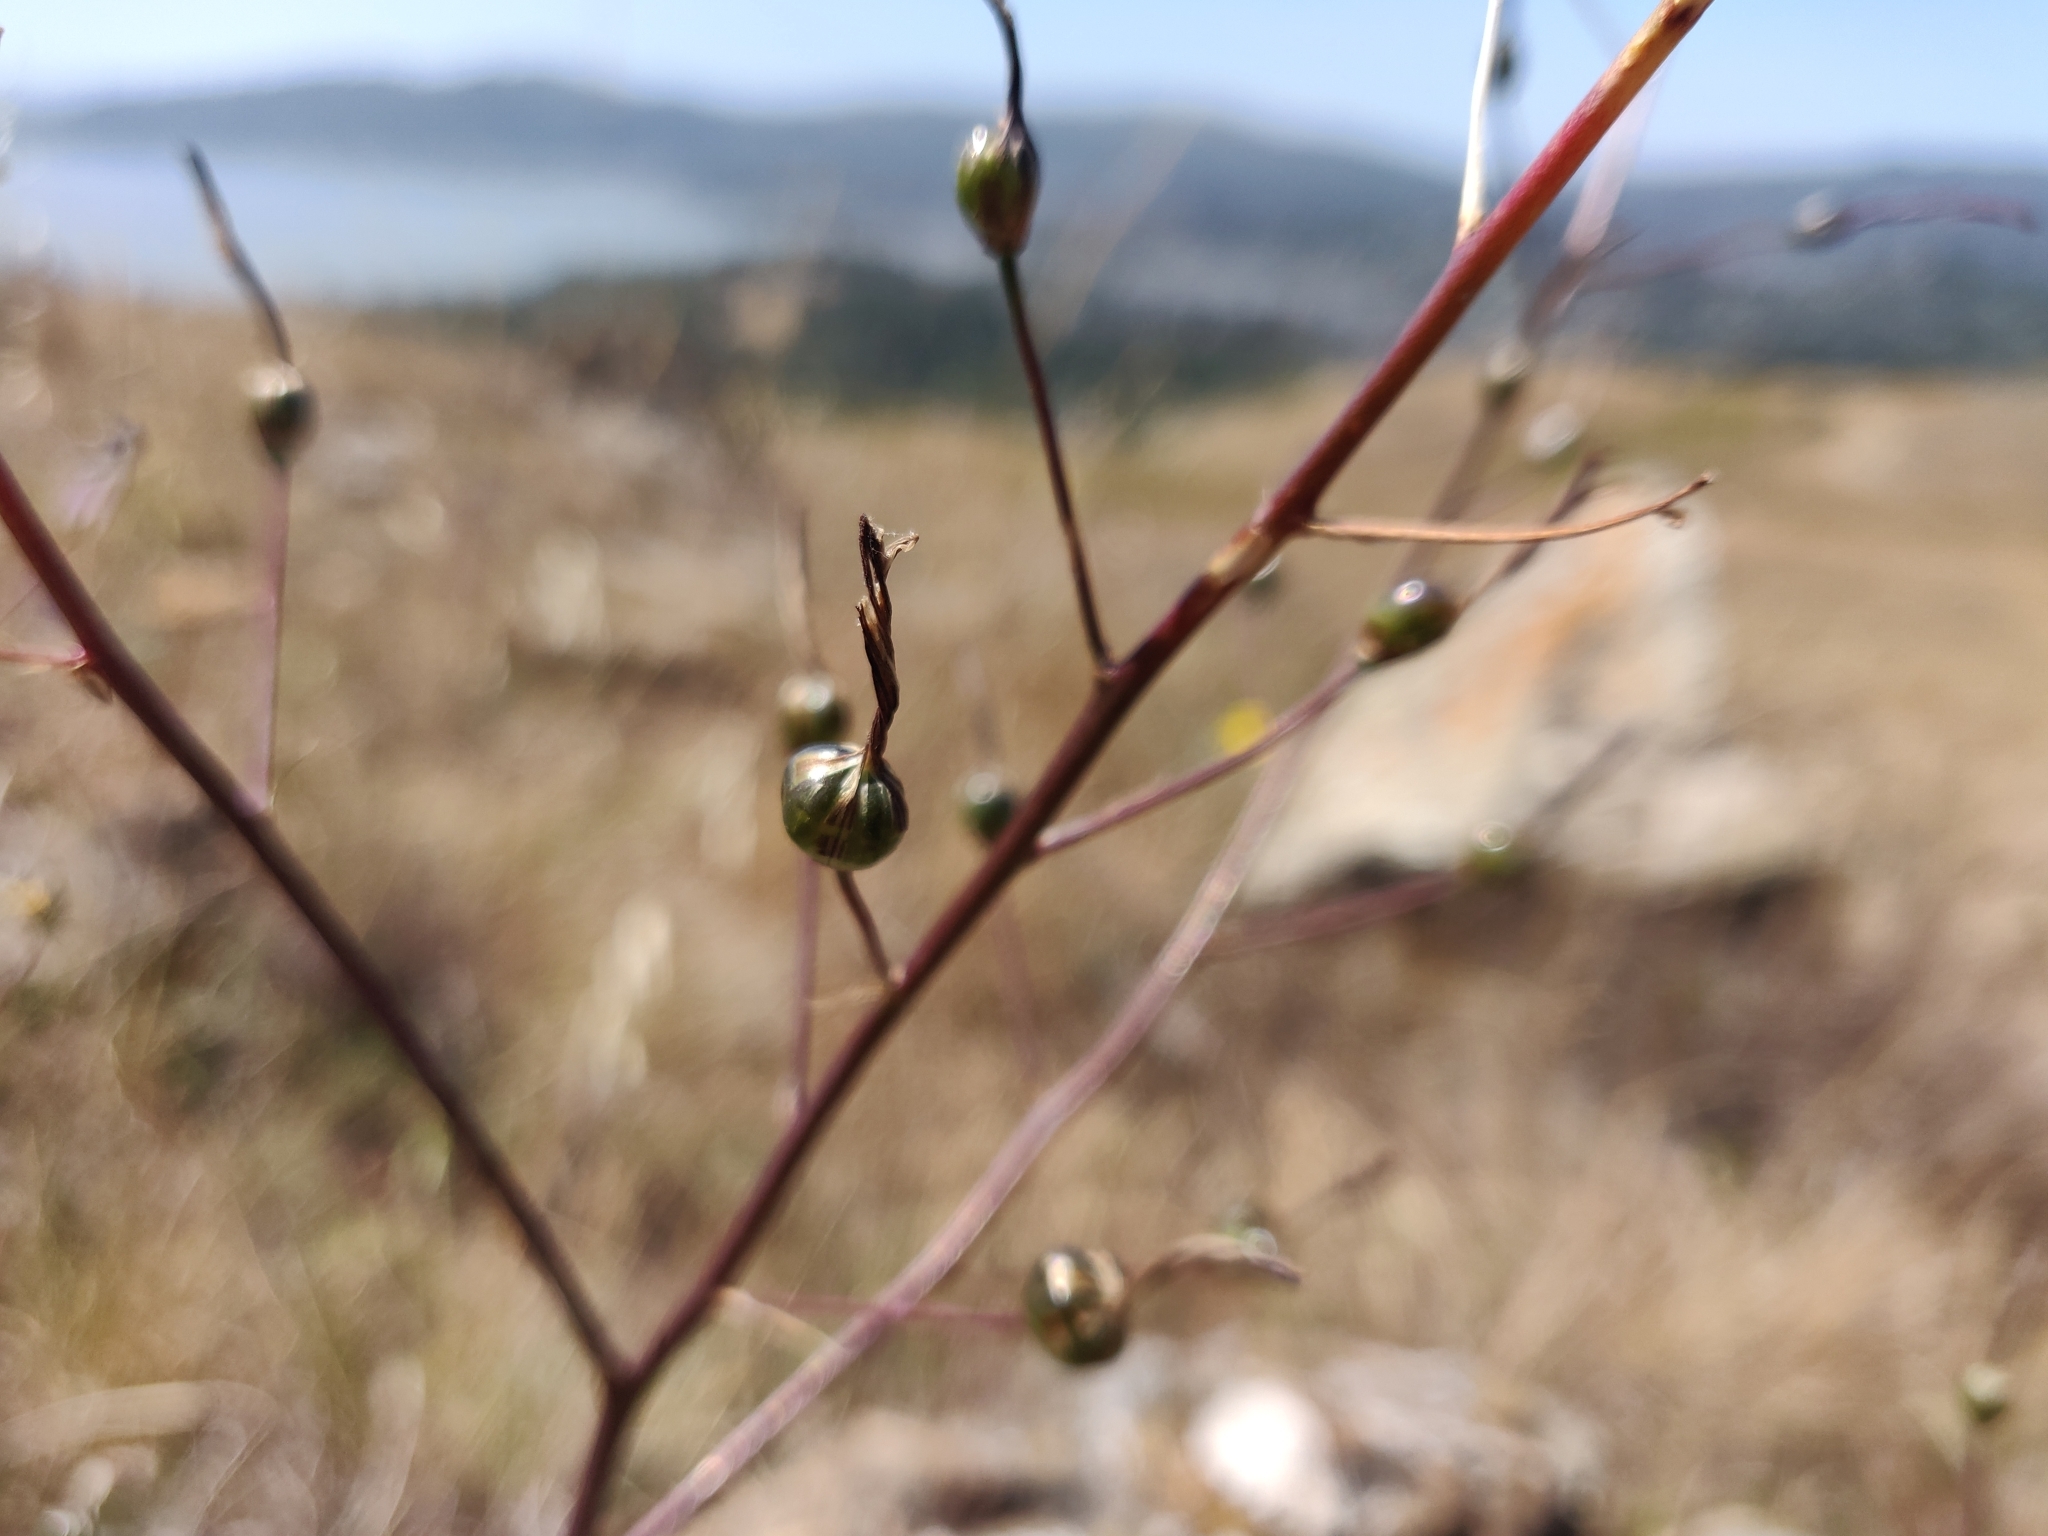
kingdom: Plantae
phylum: Tracheophyta
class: Liliopsida
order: Asparagales
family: Asparagaceae
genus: Chlorogalum
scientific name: Chlorogalum pomeridianum
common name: Amole
